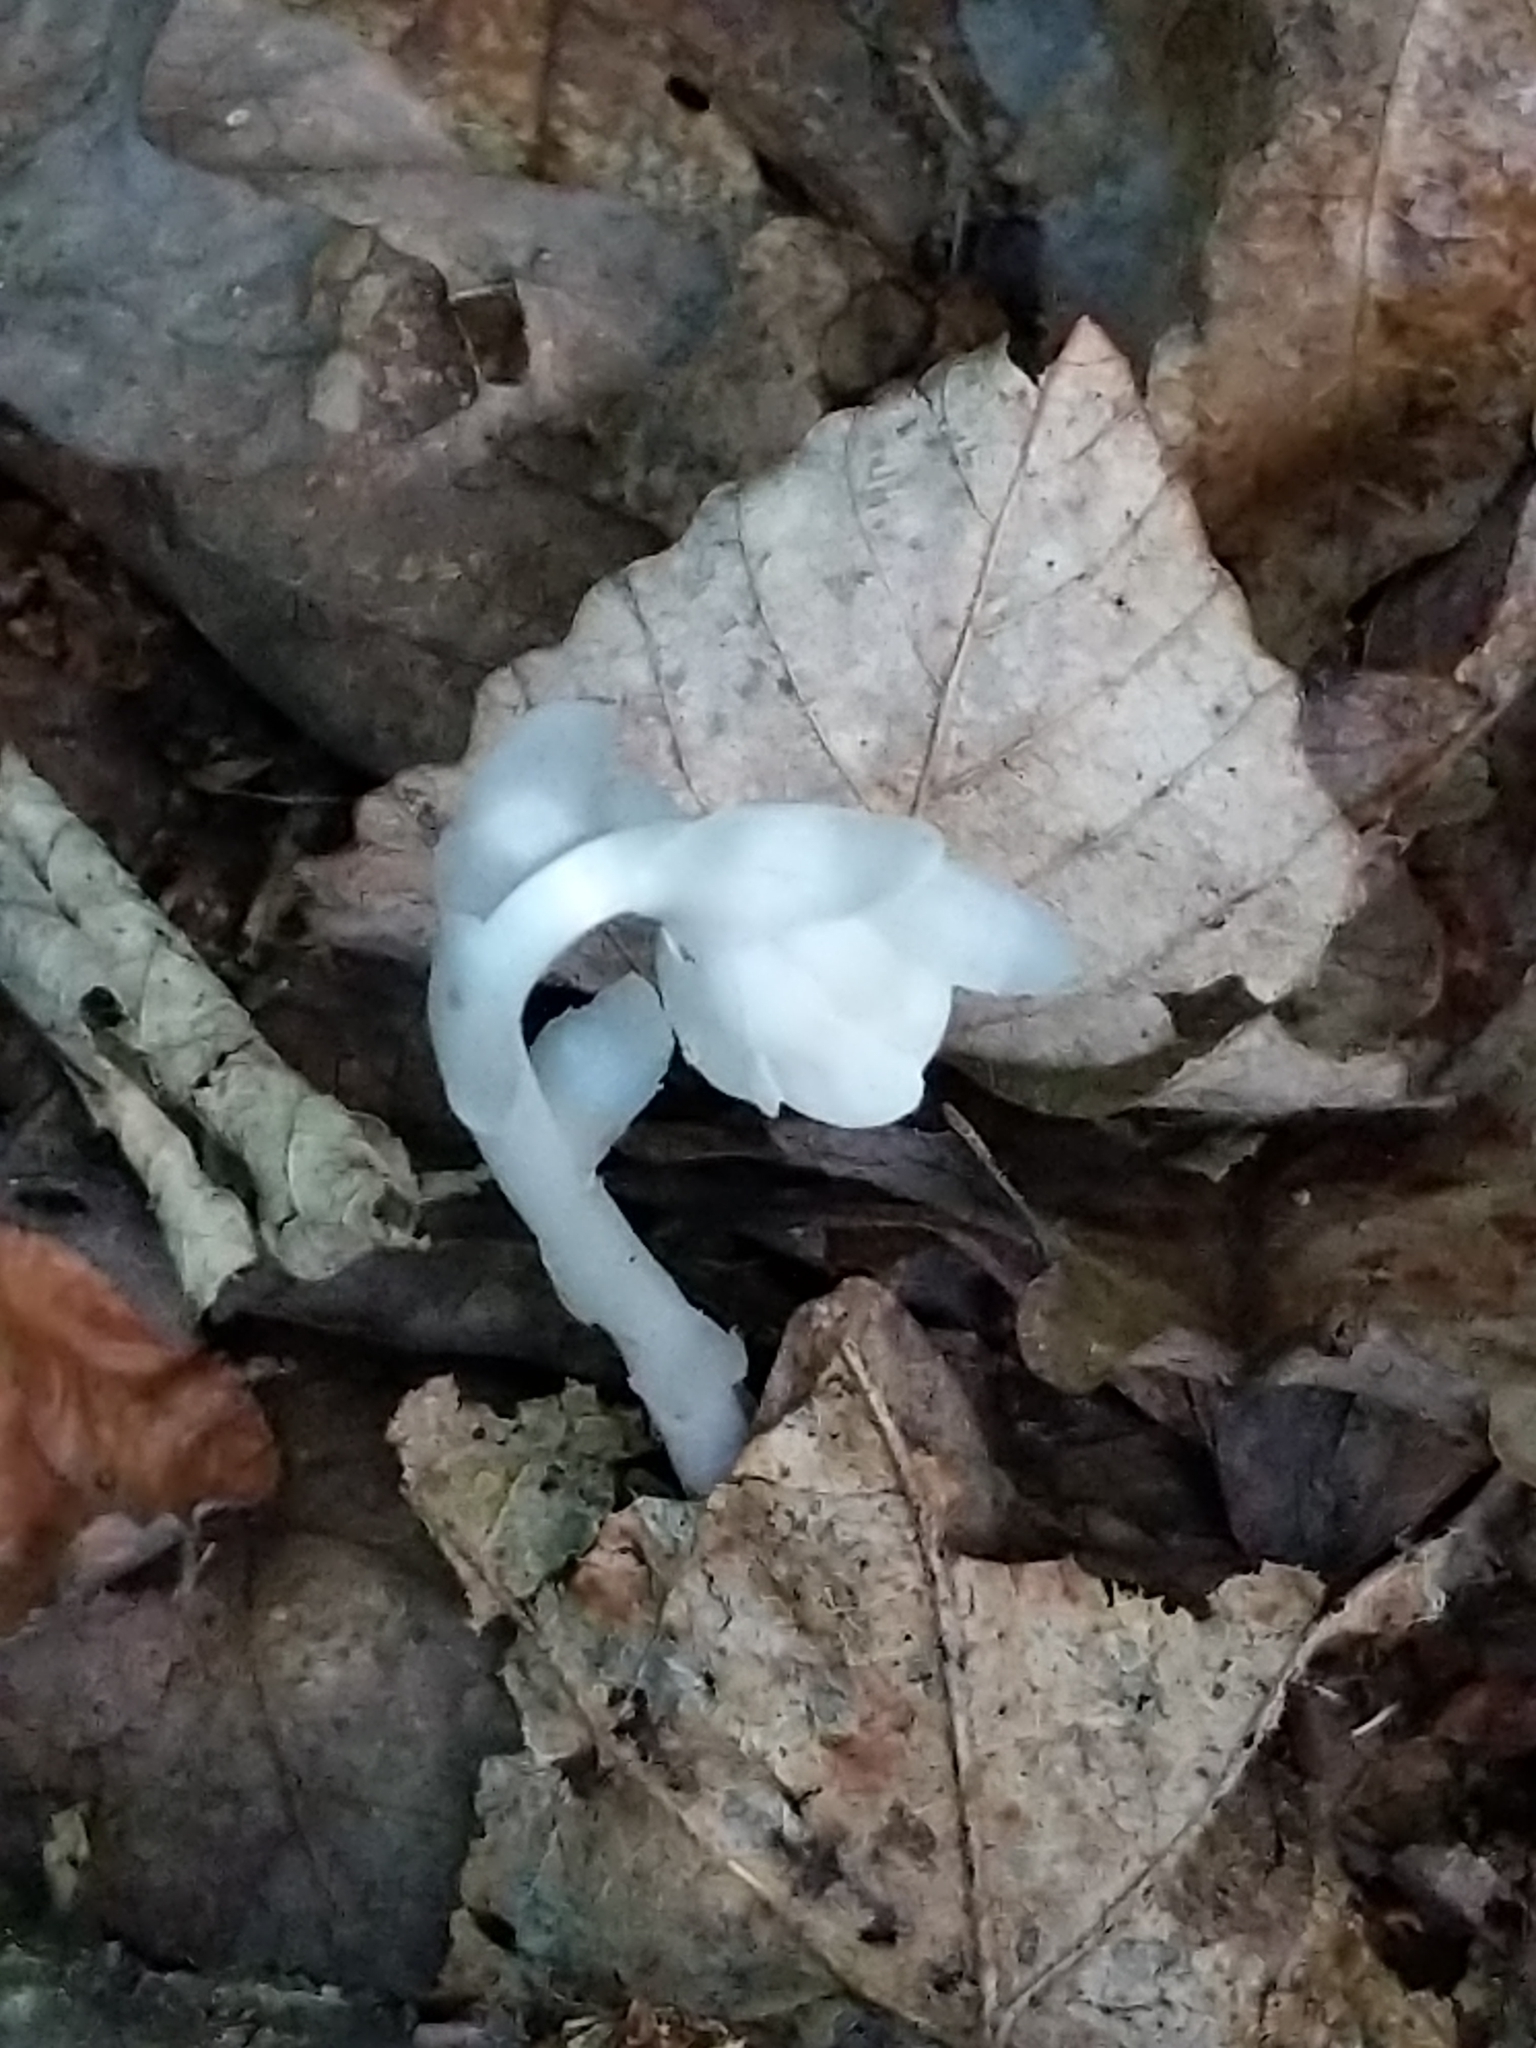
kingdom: Plantae
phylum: Tracheophyta
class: Magnoliopsida
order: Ericales
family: Ericaceae
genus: Monotropa
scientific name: Monotropa uniflora
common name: Convulsion root
